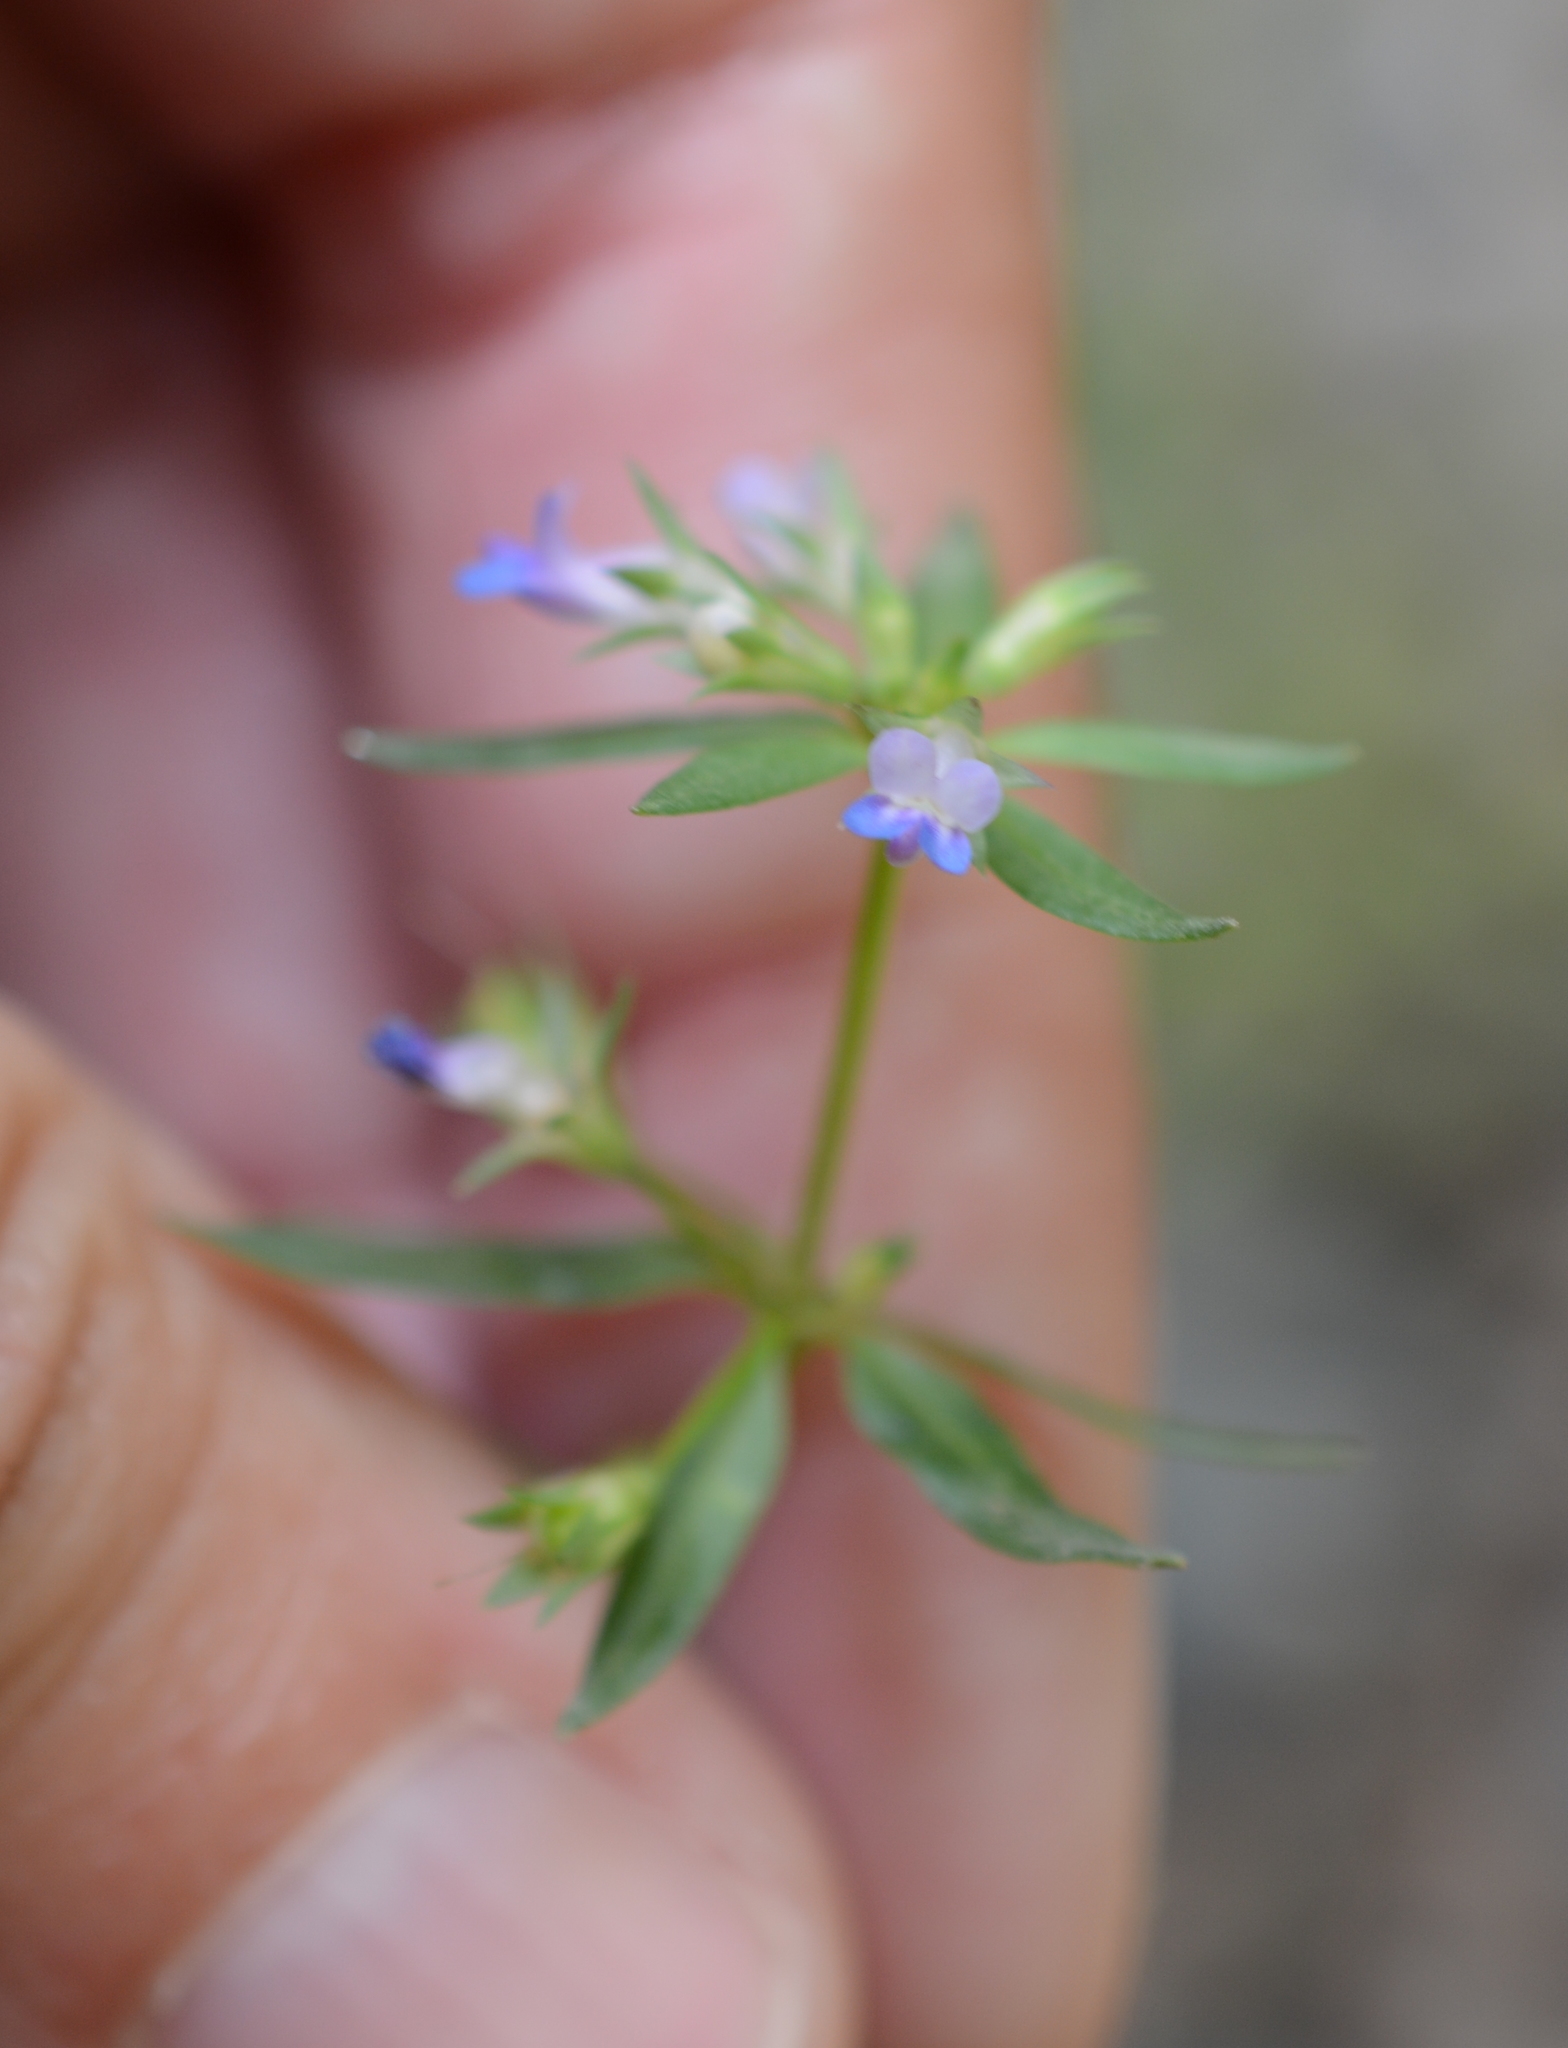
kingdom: Plantae
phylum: Tracheophyta
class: Magnoliopsida
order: Lamiales
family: Plantaginaceae
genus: Collinsia
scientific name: Collinsia parviflora
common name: Blue-lips
